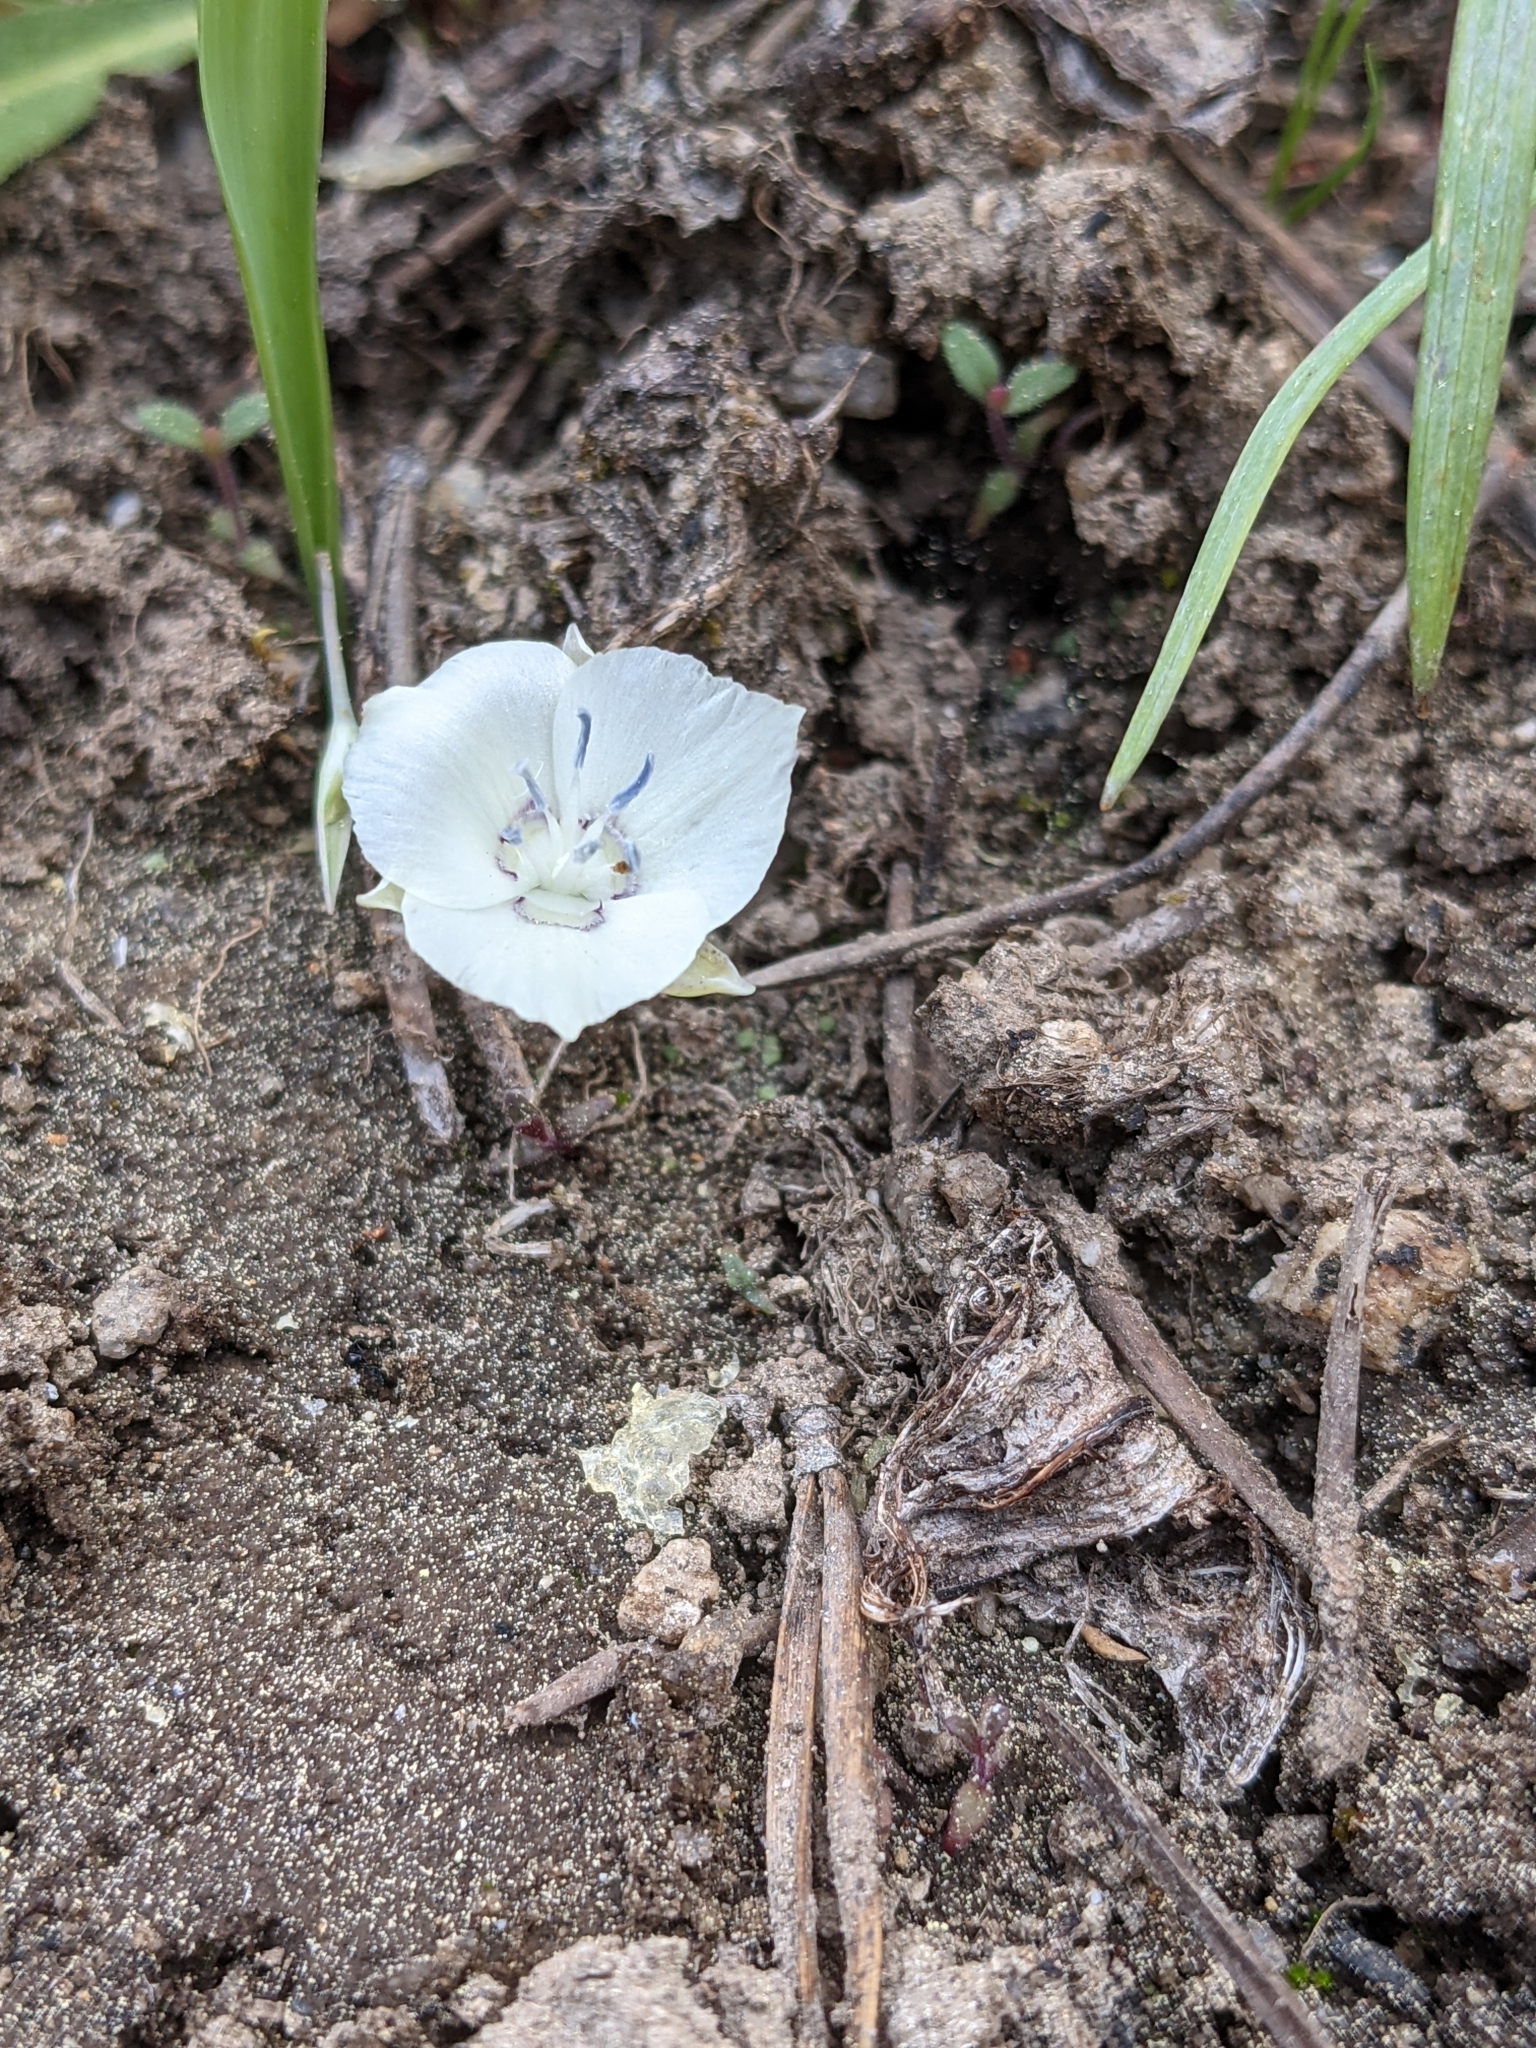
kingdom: Plantae
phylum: Tracheophyta
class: Liliopsida
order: Liliales
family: Liliaceae
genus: Calochortus
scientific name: Calochortus minimus
